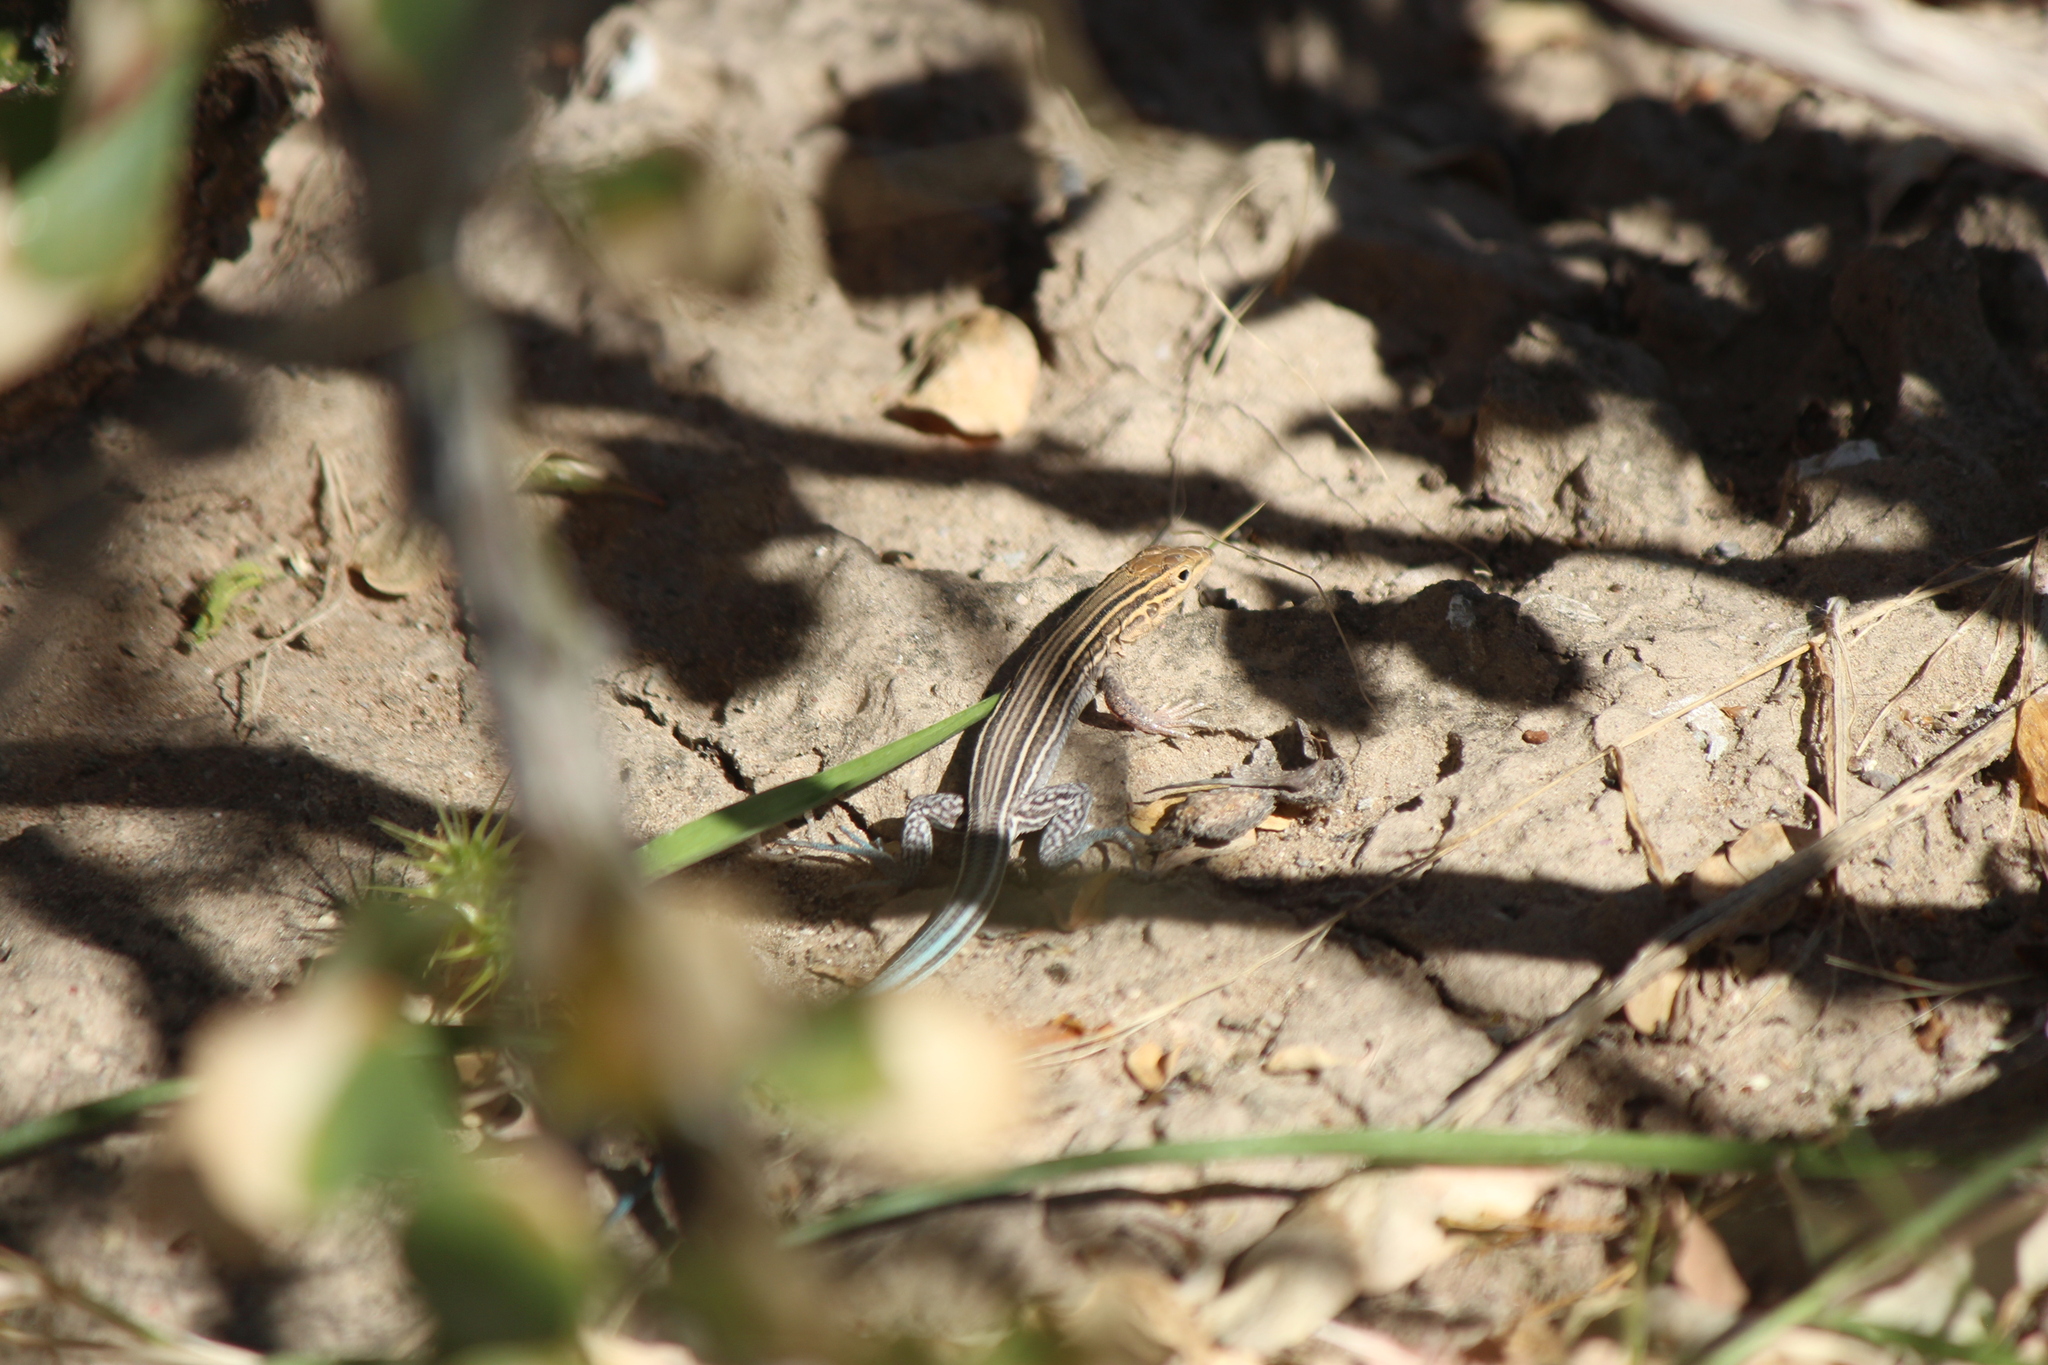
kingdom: Animalia
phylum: Chordata
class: Squamata
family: Teiidae
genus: Aspidoscelis
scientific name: Aspidoscelis hyperythrus
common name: Orange-throated race-runner
